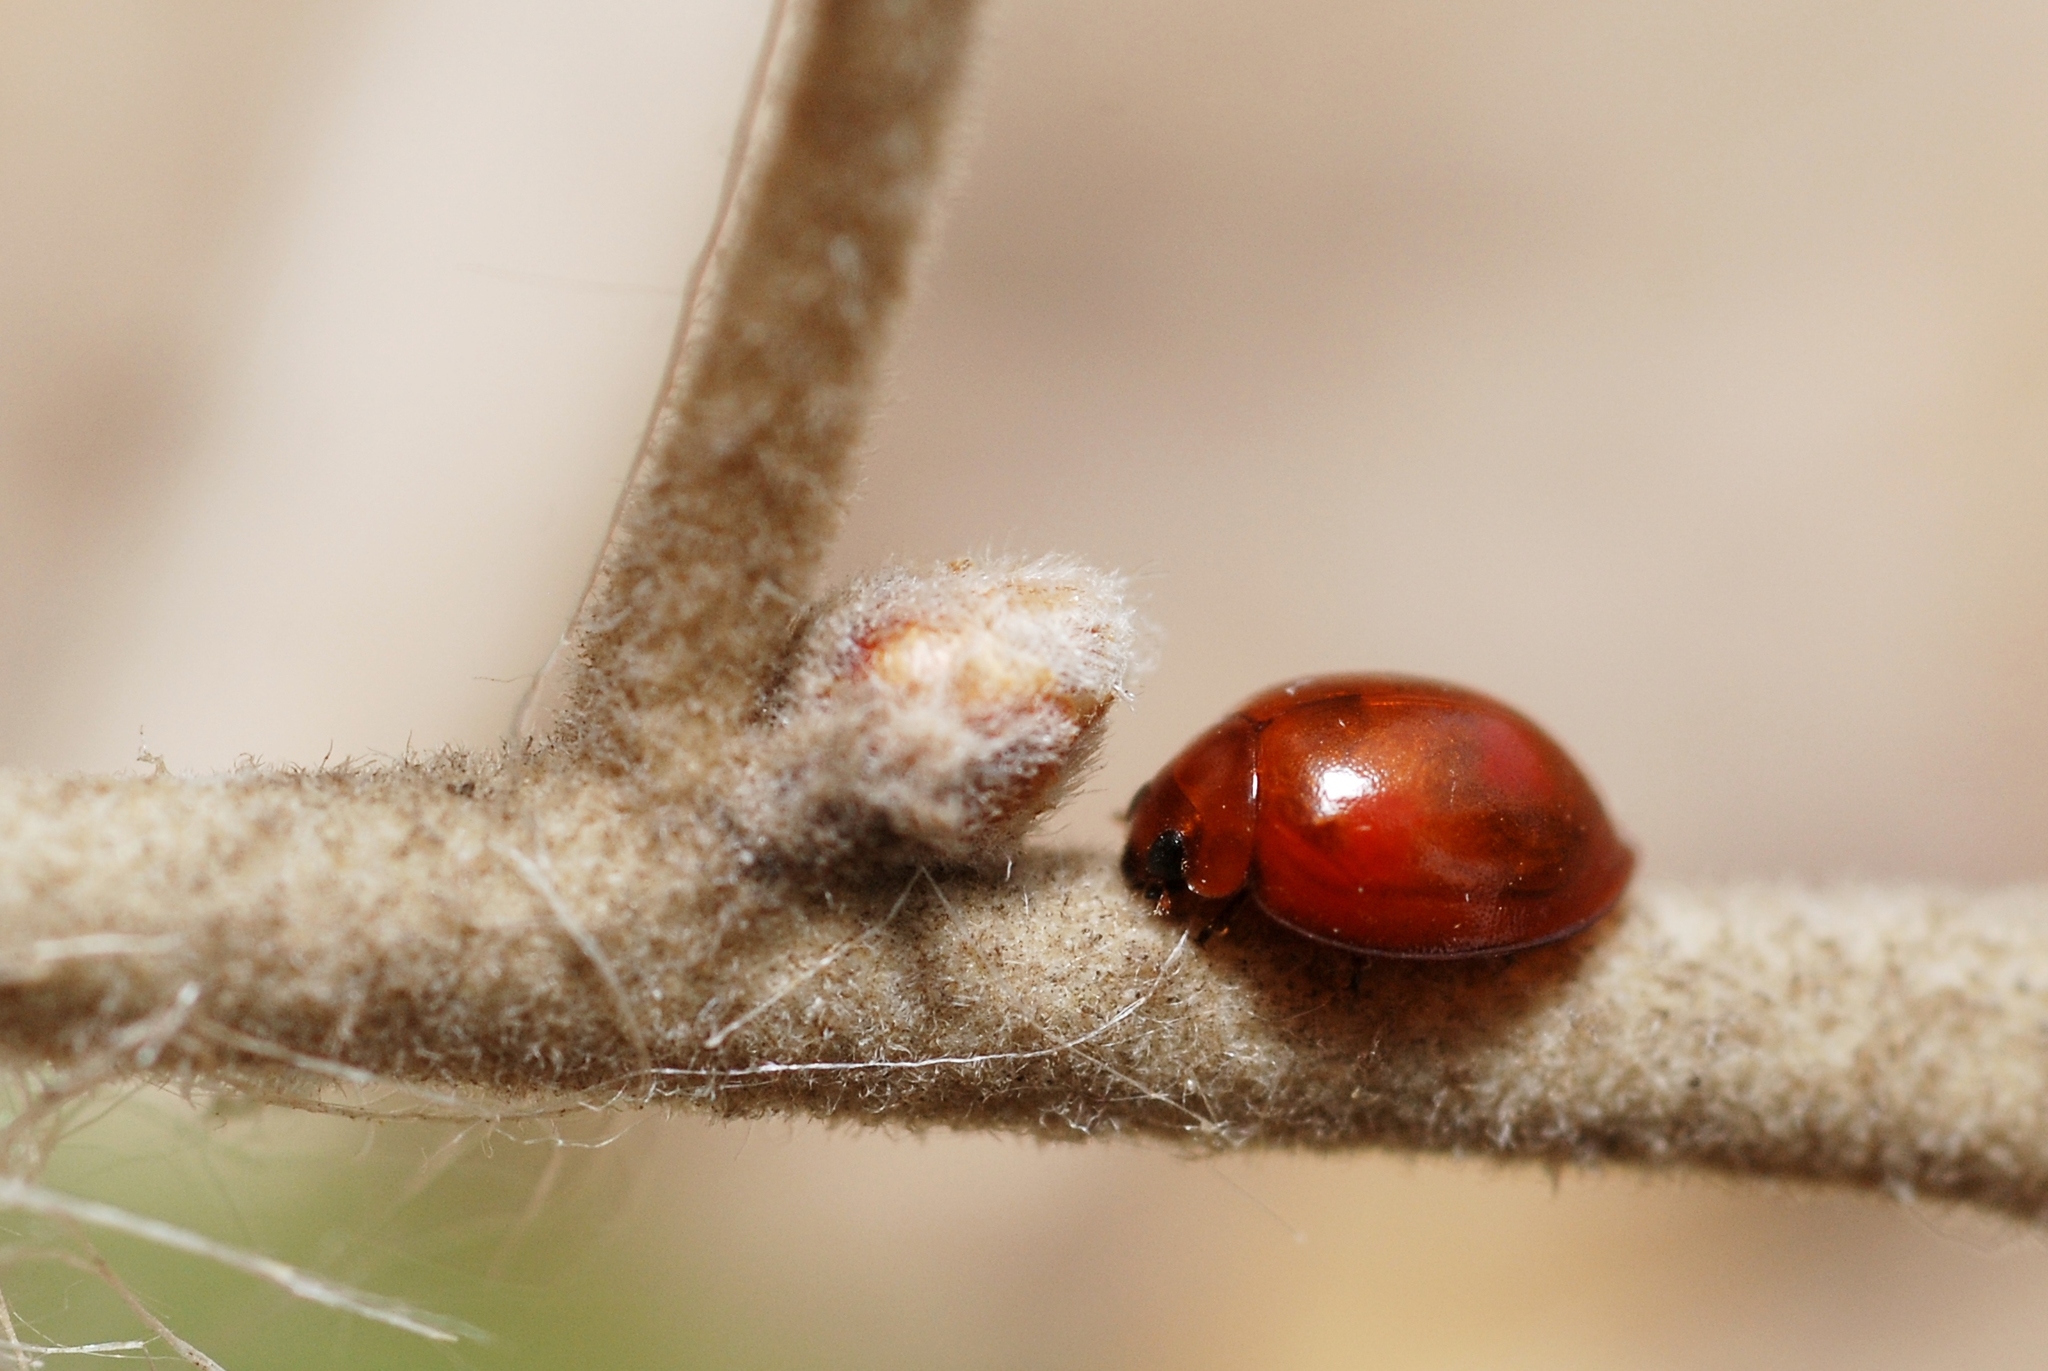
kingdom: Animalia
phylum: Arthropoda
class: Insecta
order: Coleoptera
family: Coccinellidae
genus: Brumus
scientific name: Brumus quadripustulatus
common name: Ladybird beetle
